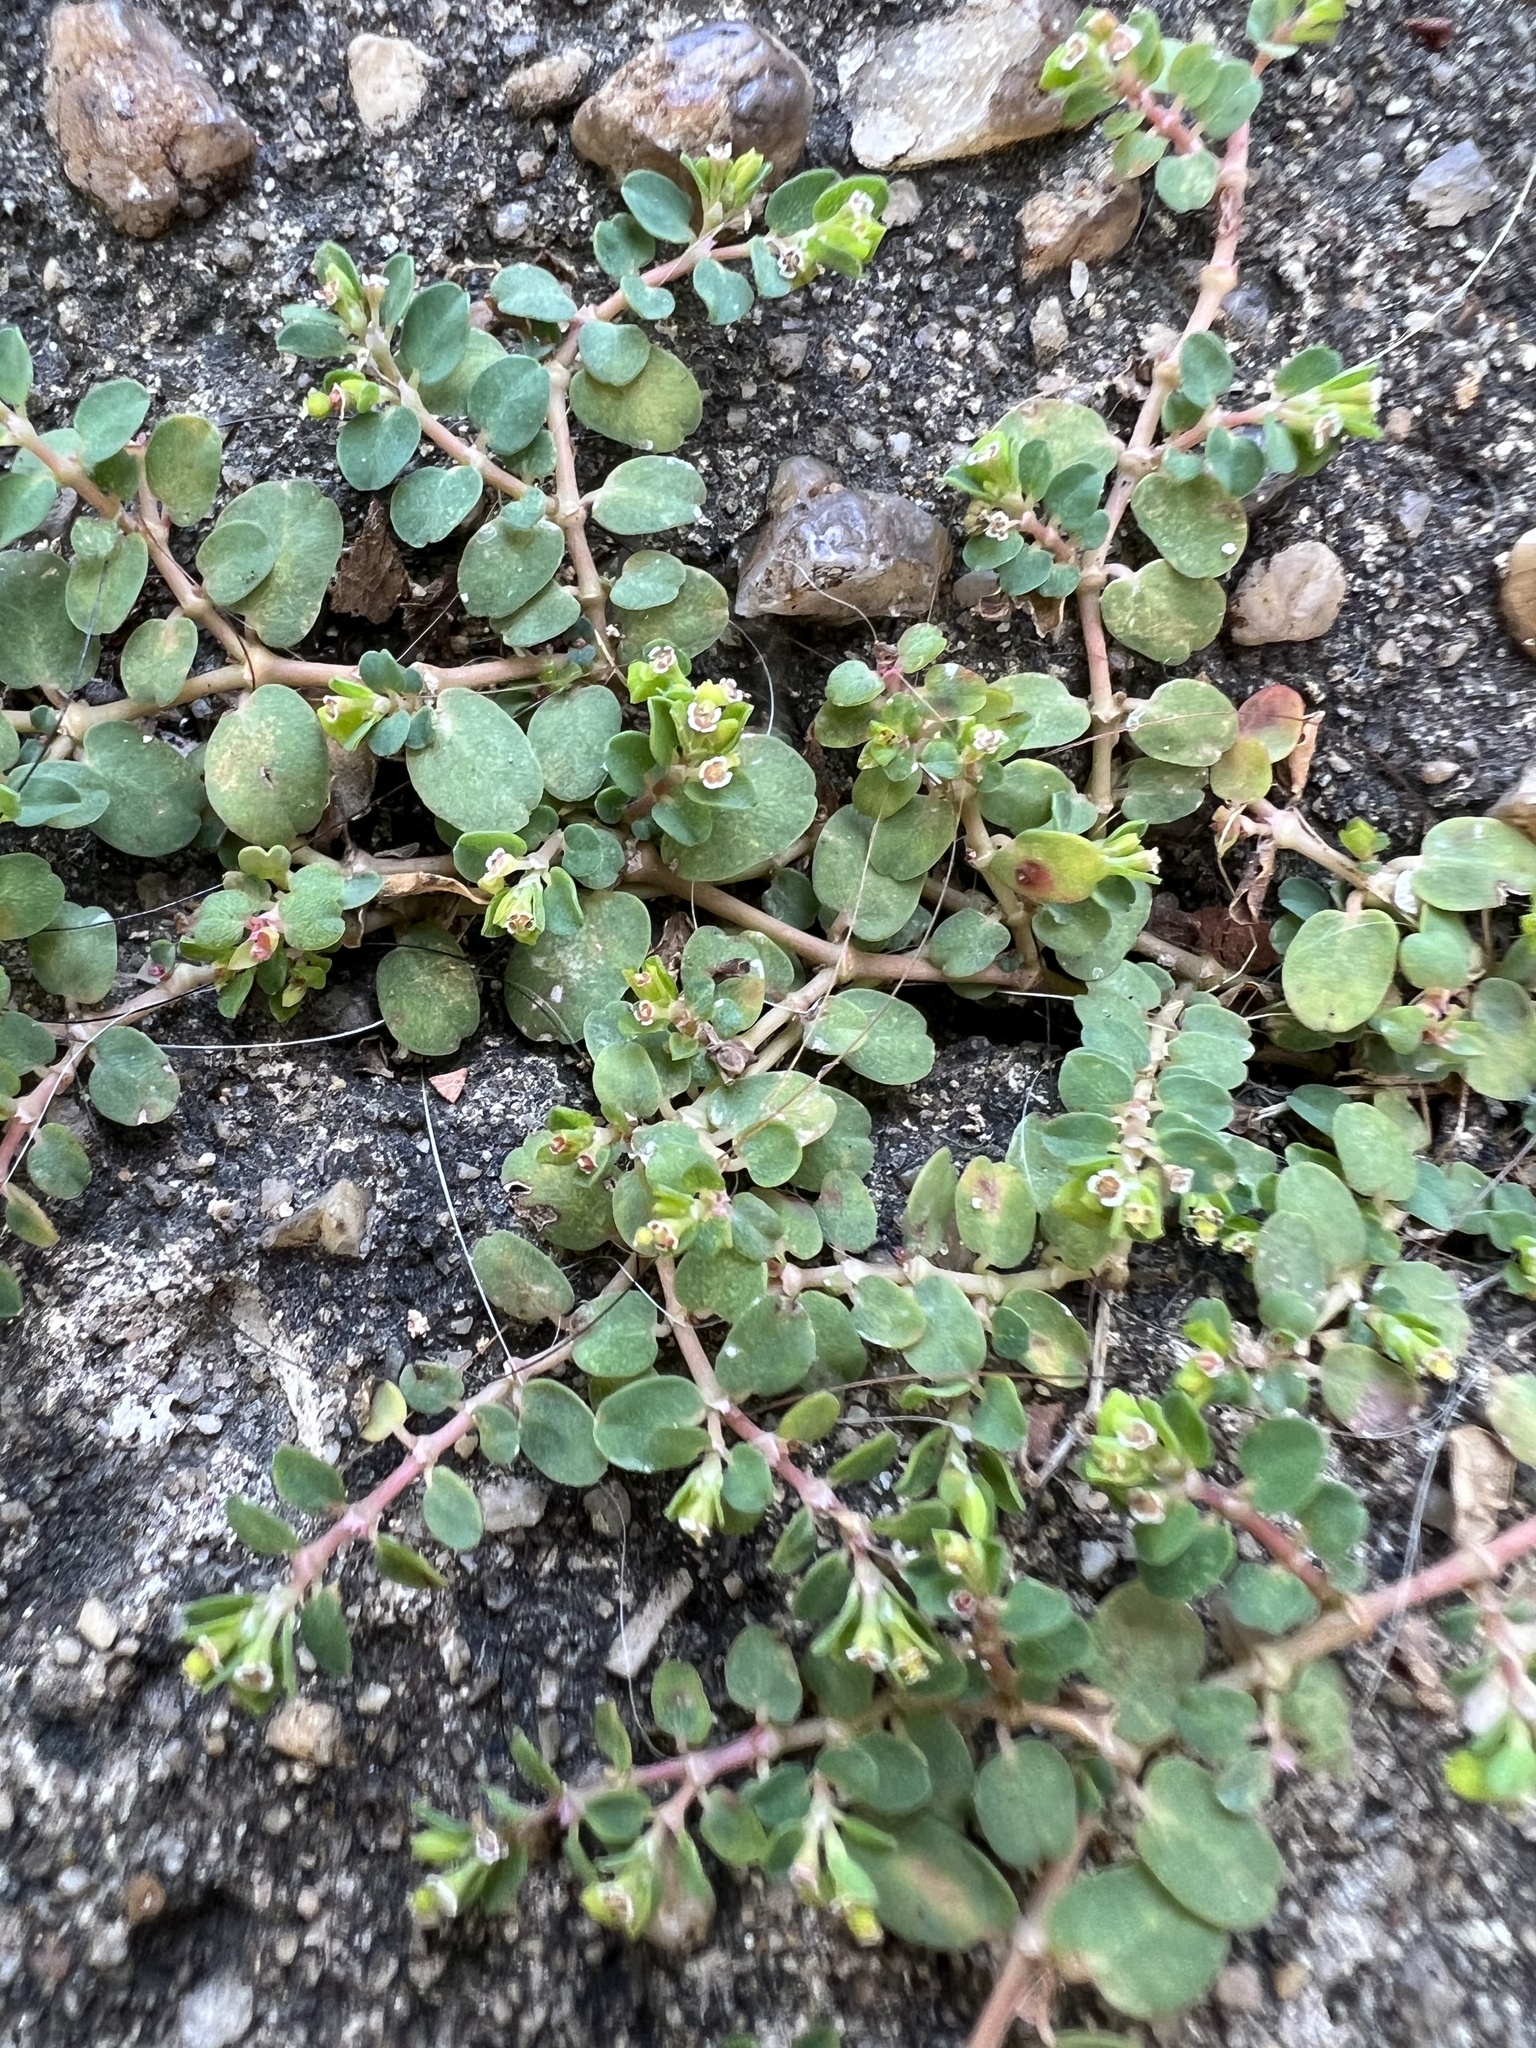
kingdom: Plantae
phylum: Tracheophyta
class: Magnoliopsida
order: Malpighiales
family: Euphorbiaceae
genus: Euphorbia
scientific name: Euphorbia serpens
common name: Matted sandmat
